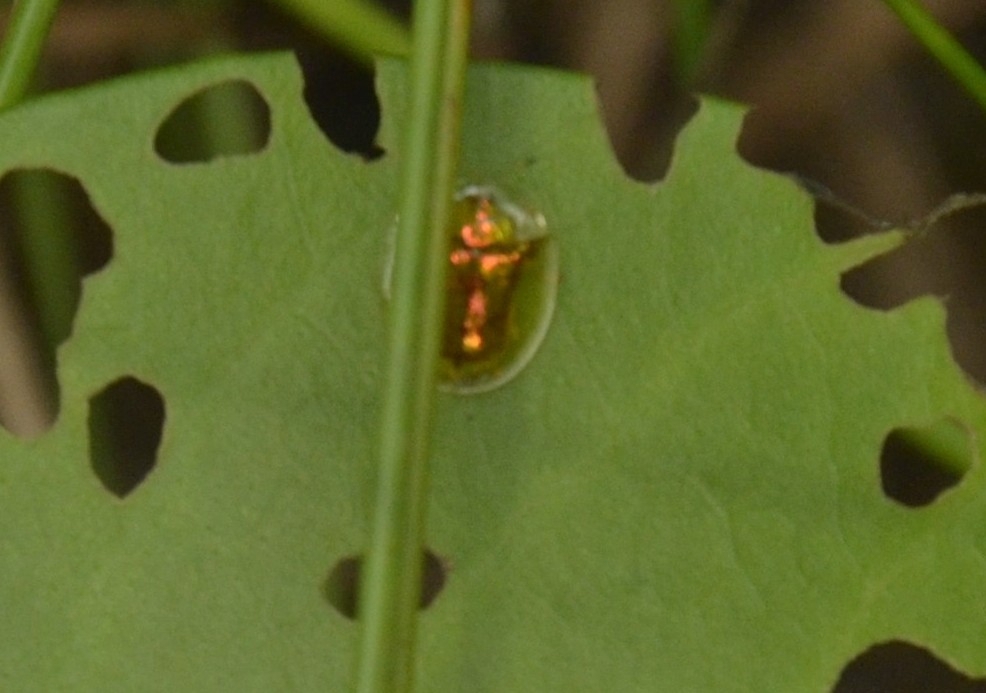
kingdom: Animalia
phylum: Arthropoda
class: Insecta
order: Coleoptera
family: Chrysomelidae
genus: Aspidimorpha
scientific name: Aspidimorpha furcata
